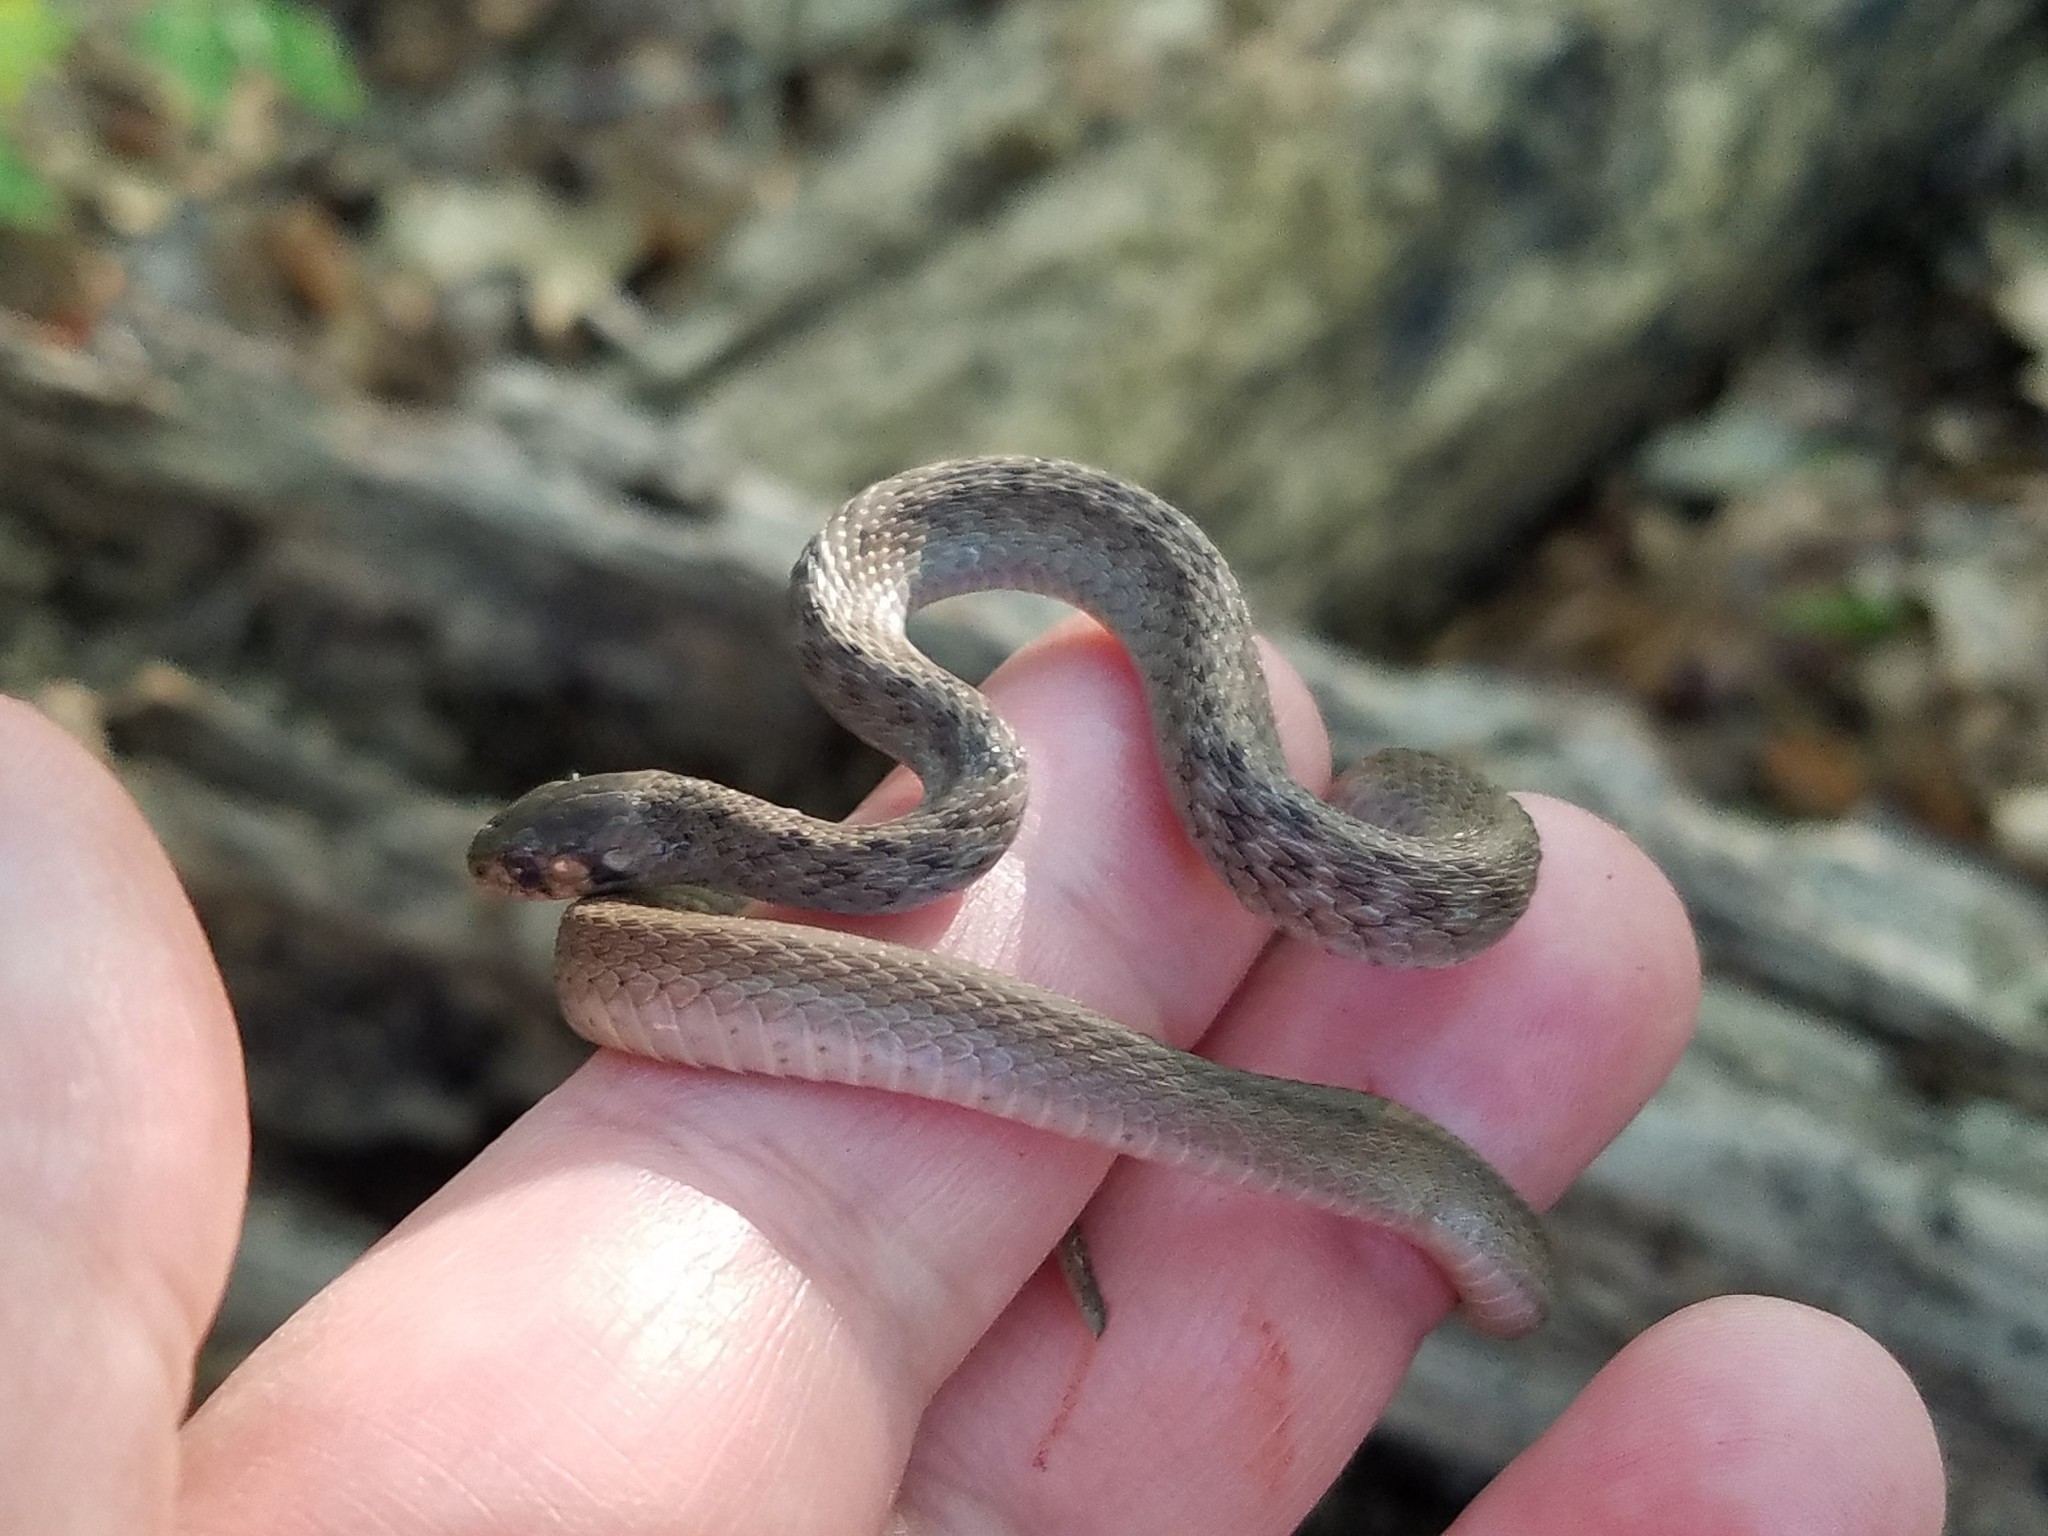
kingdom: Animalia
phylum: Chordata
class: Squamata
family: Colubridae
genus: Storeria
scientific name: Storeria dekayi
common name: (dekay’s) brown snake
